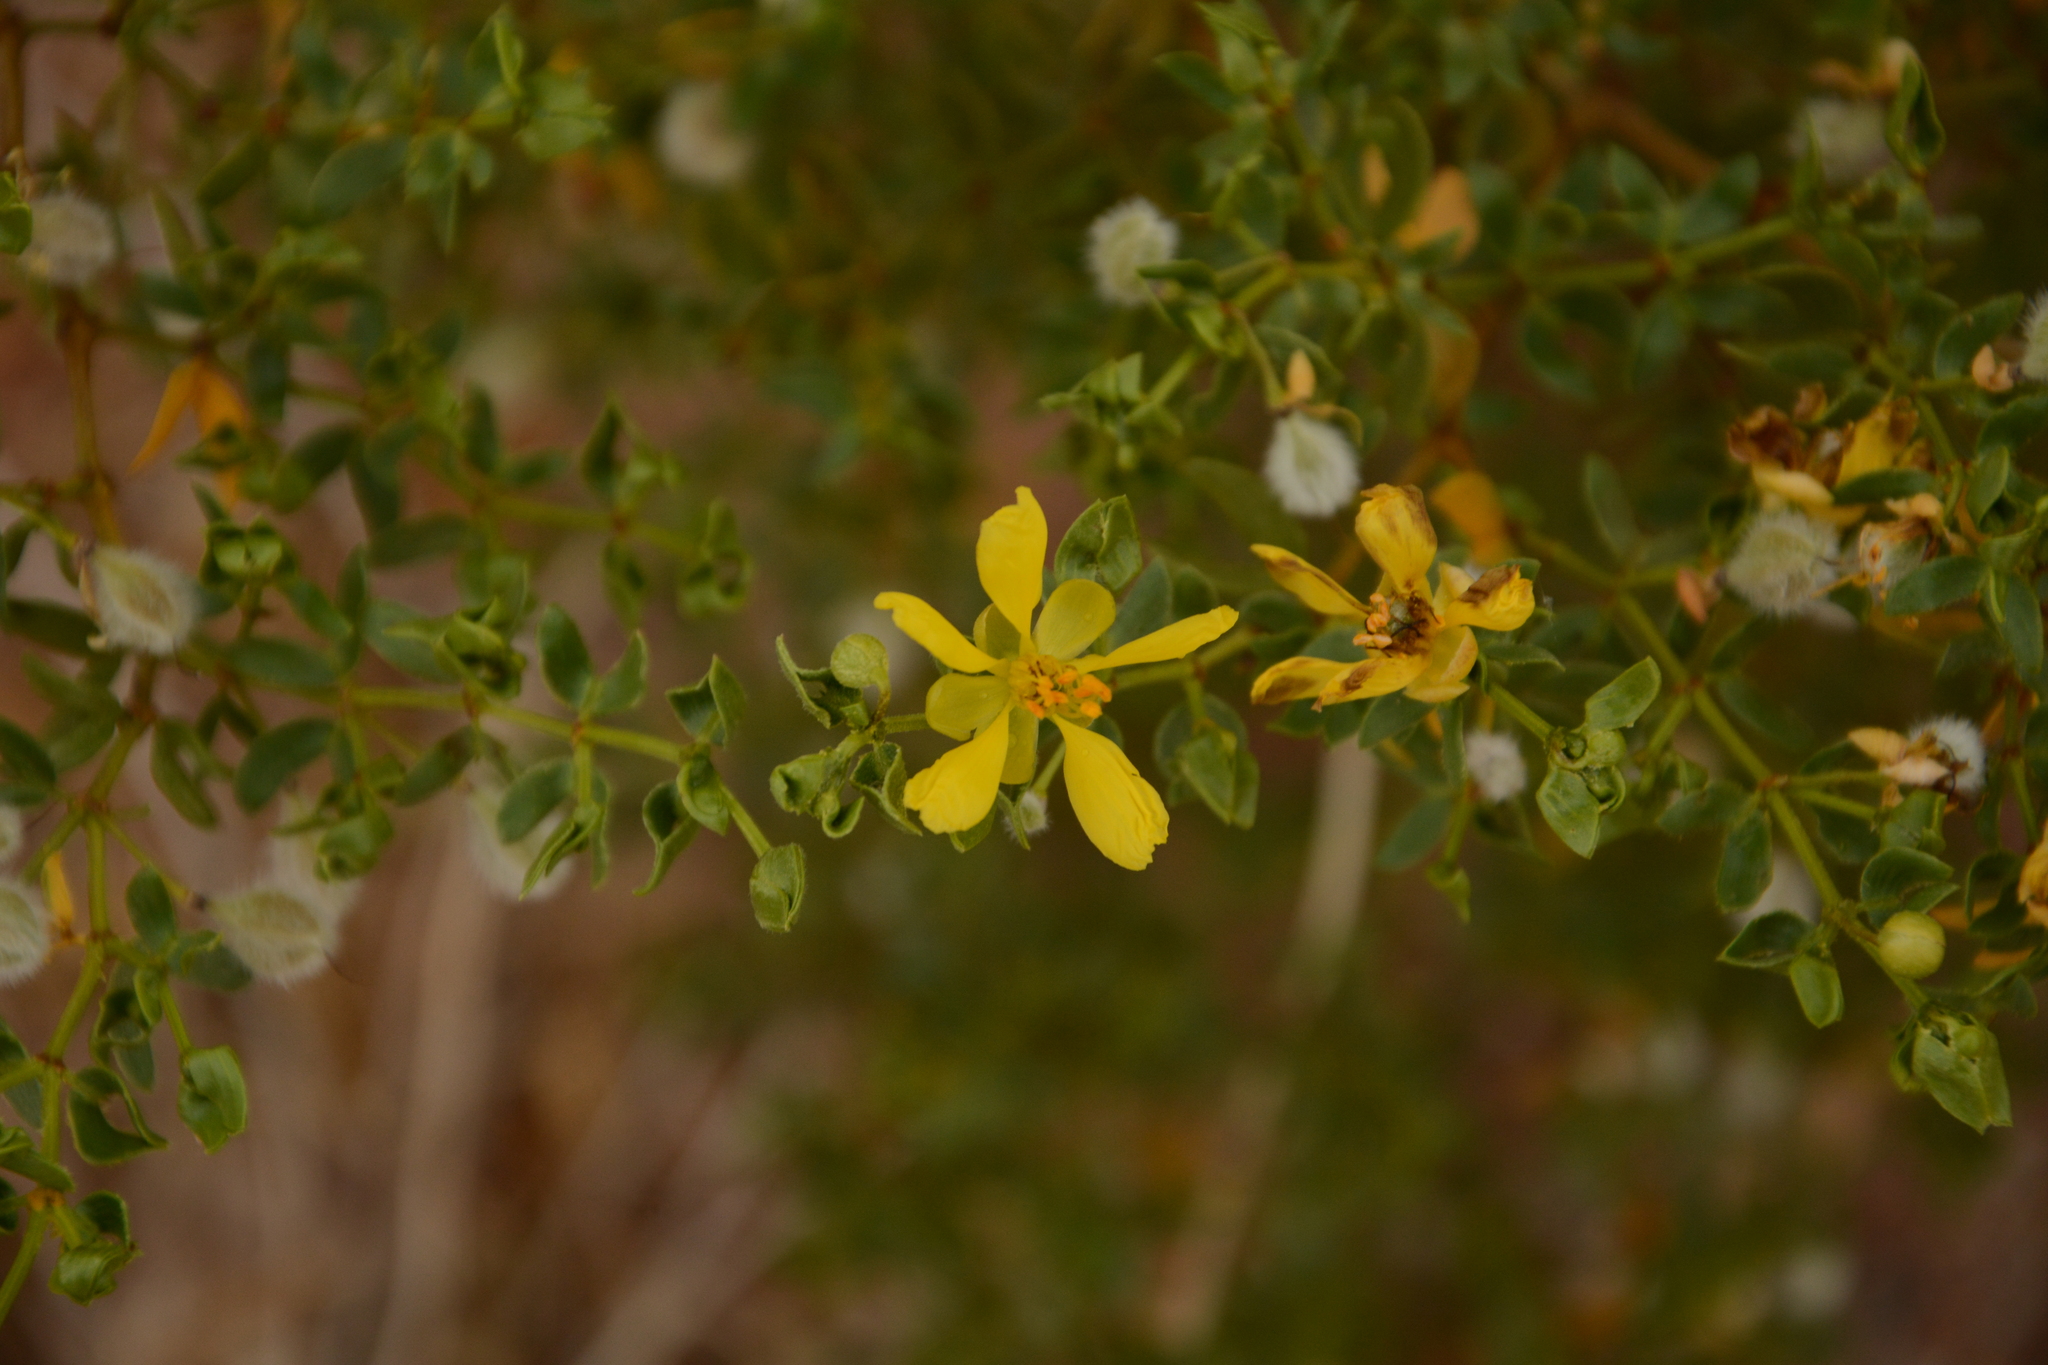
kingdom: Plantae
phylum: Tracheophyta
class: Magnoliopsida
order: Zygophyllales
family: Zygophyllaceae
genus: Larrea
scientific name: Larrea tridentata
